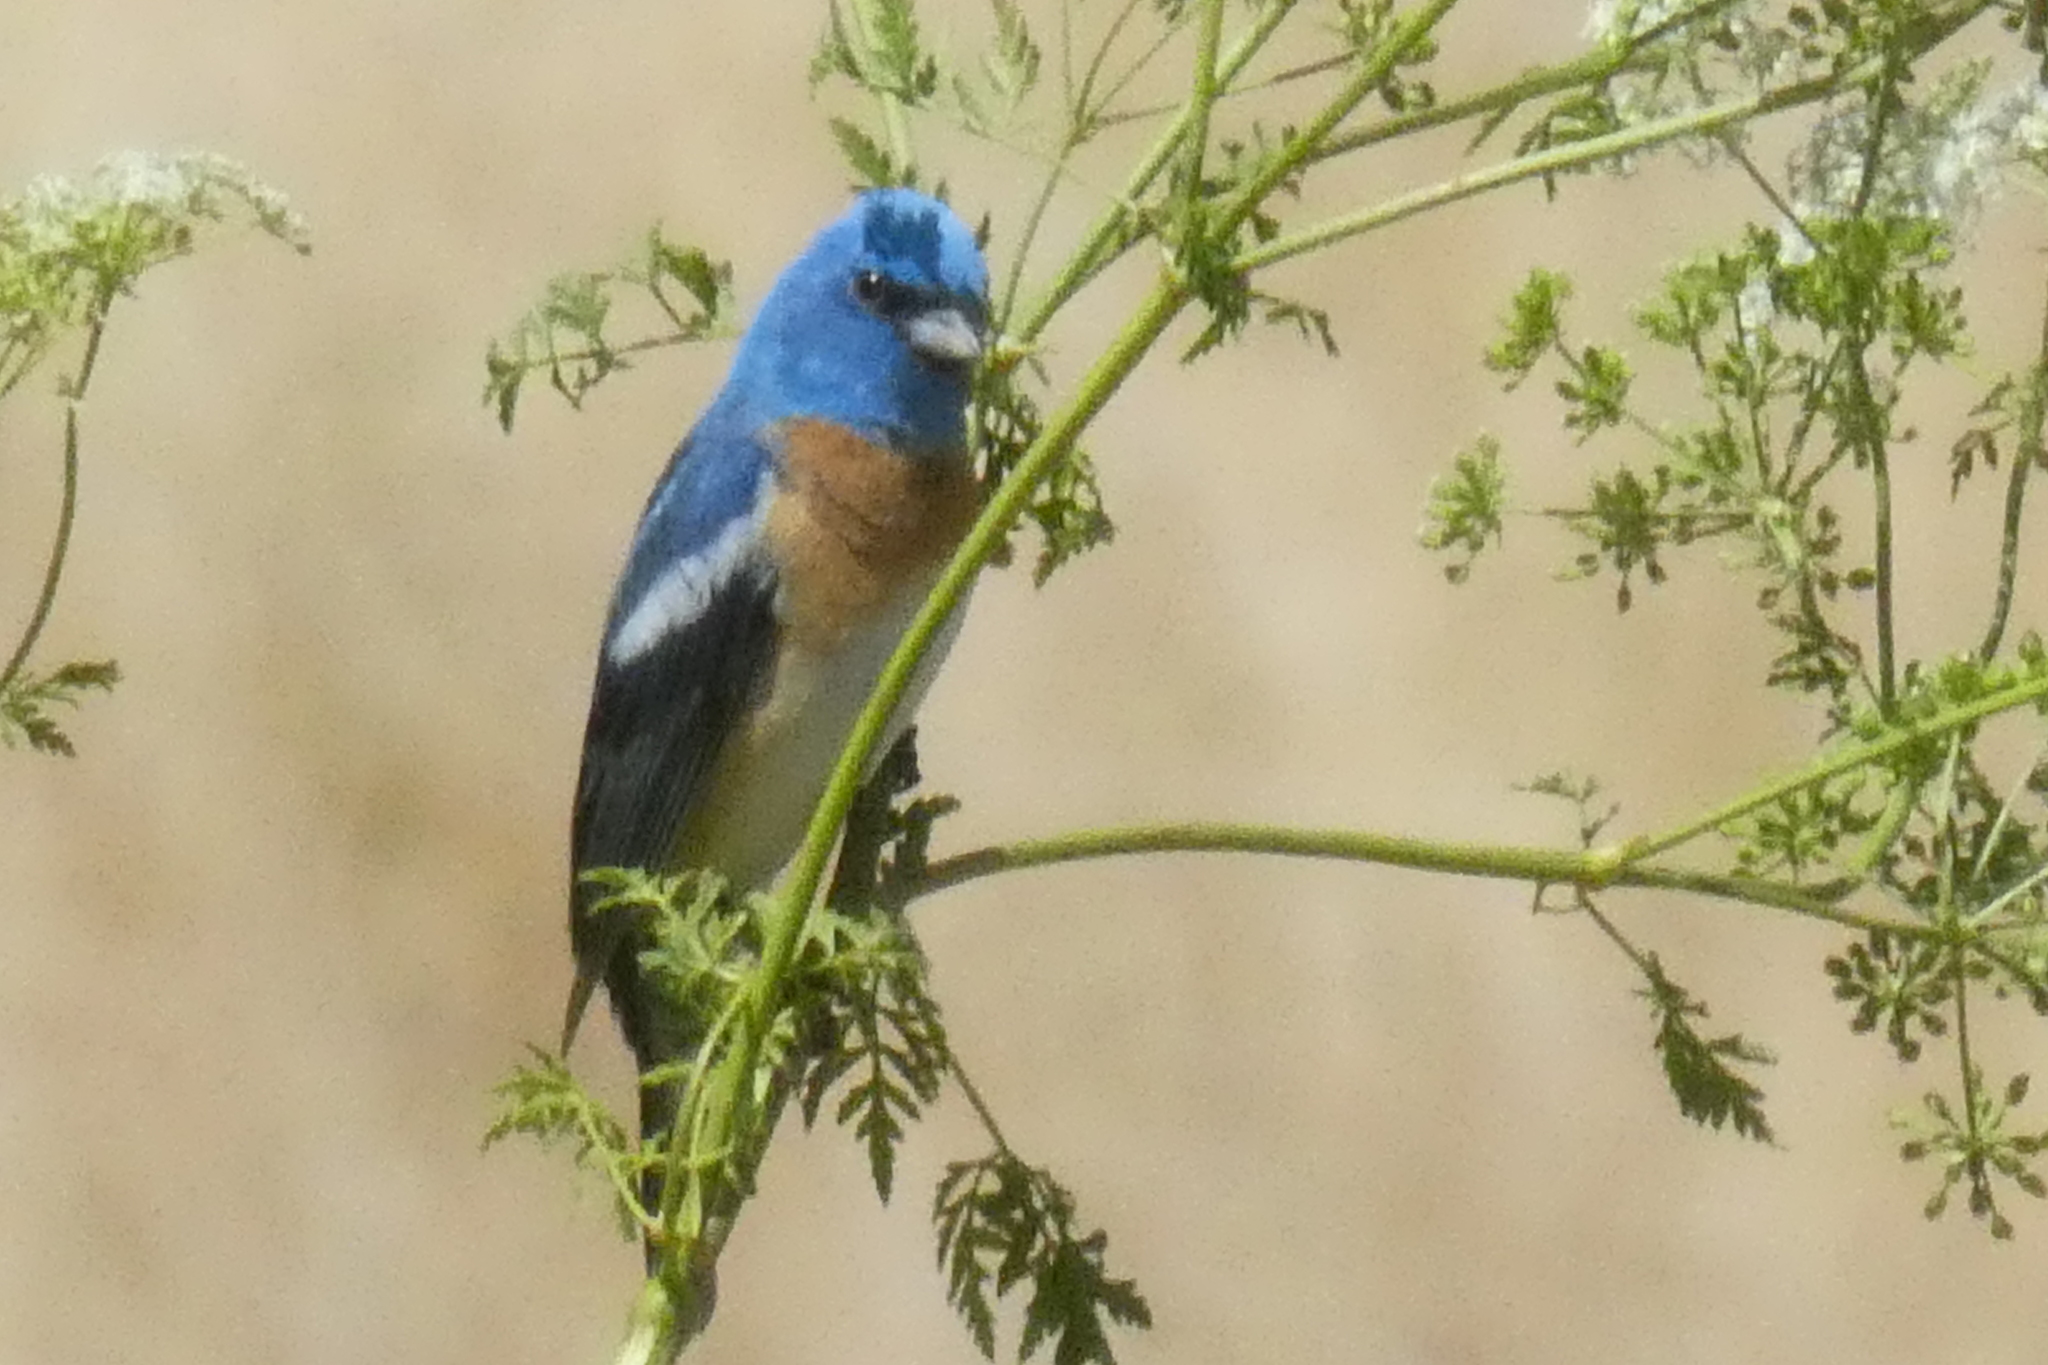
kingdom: Animalia
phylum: Chordata
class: Aves
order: Passeriformes
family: Cardinalidae
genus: Passerina
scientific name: Passerina amoena
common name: Lazuli bunting
